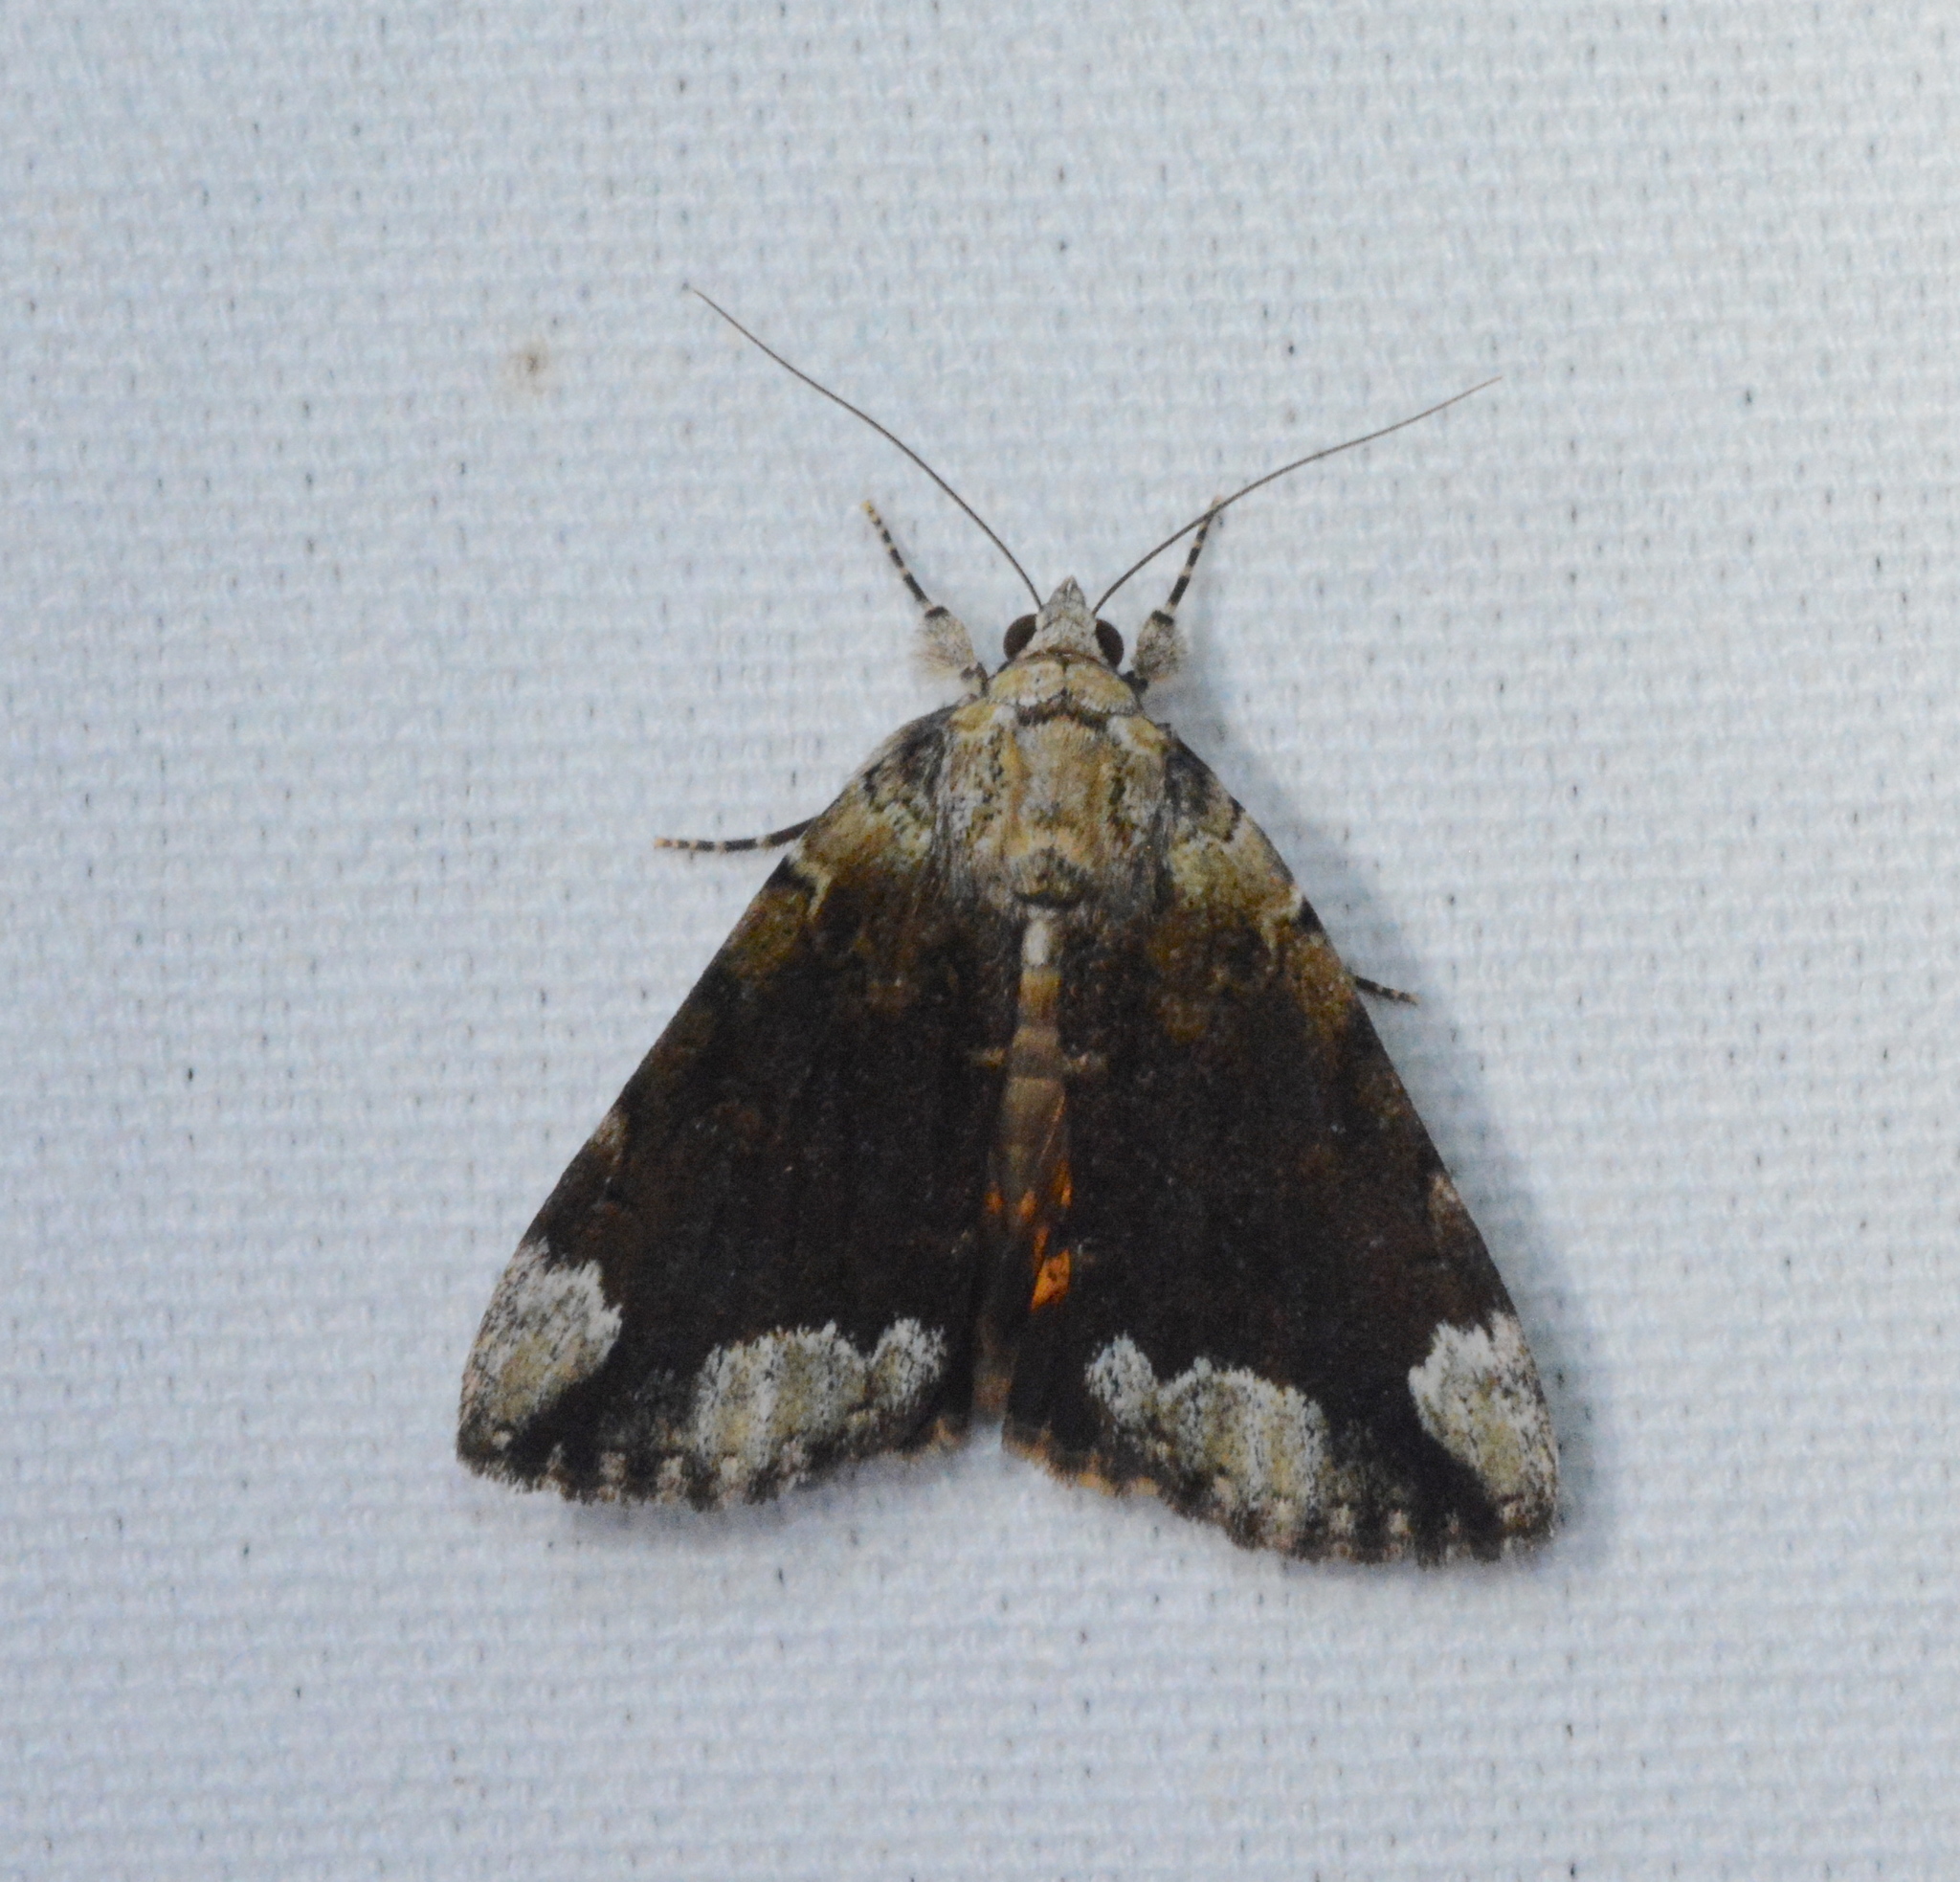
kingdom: Animalia
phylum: Arthropoda
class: Insecta
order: Lepidoptera
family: Erebidae
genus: Catocala
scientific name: Catocala micronympha
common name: Little nymph underwing
